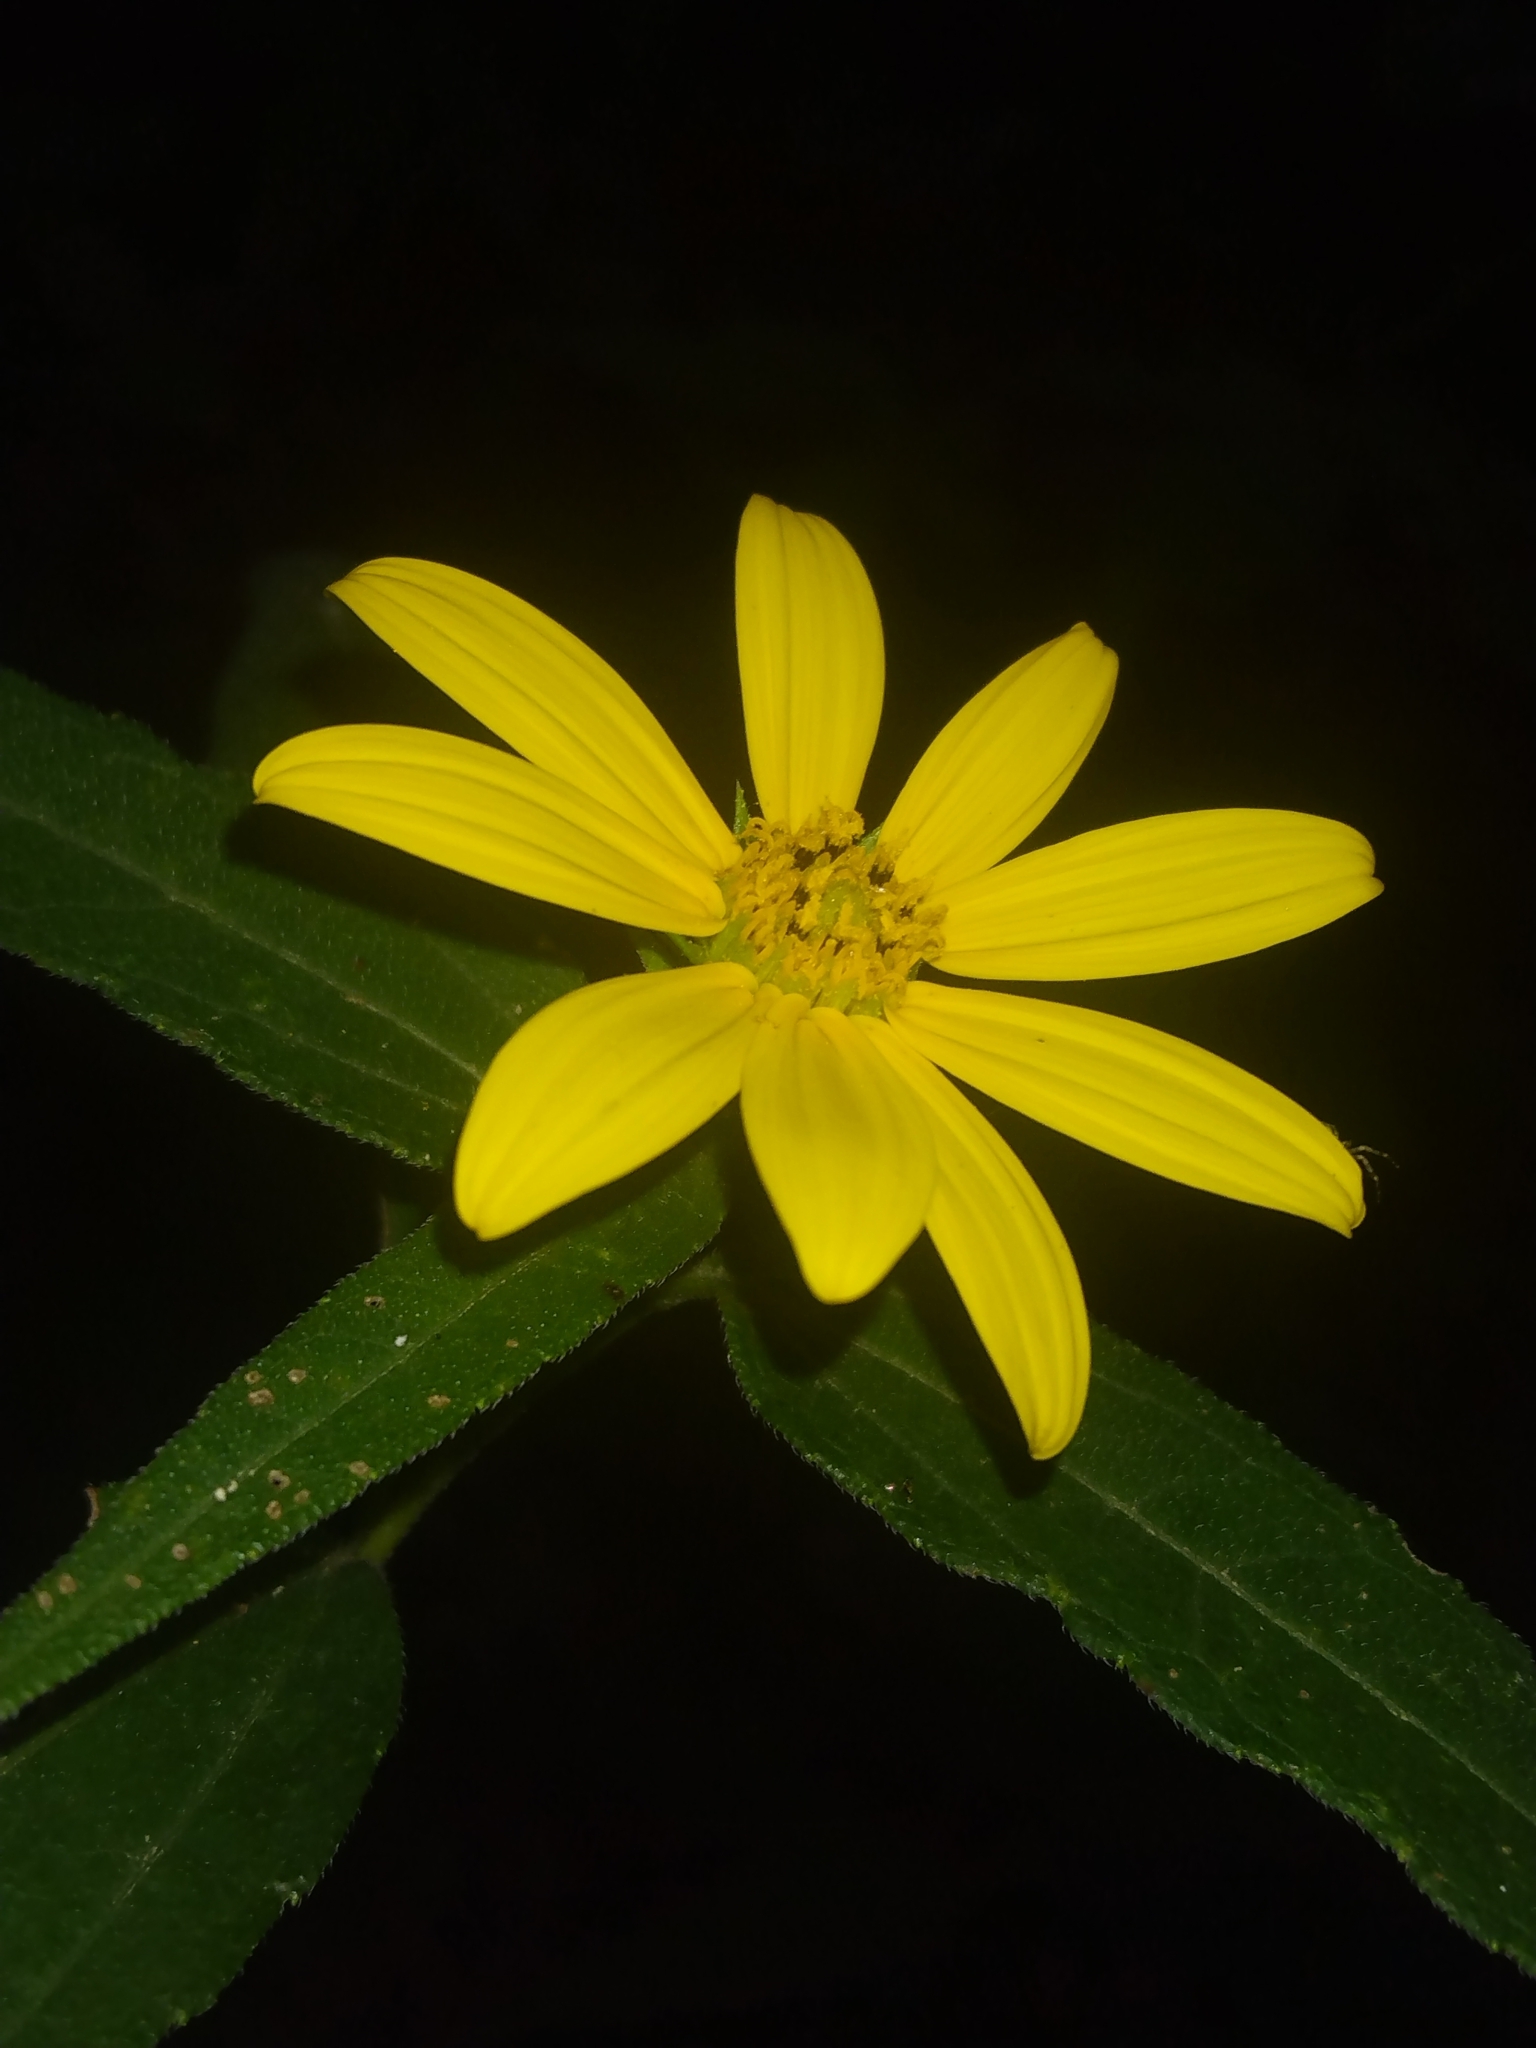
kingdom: Plantae
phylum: Tracheophyta
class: Magnoliopsida
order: Asterales
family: Asteraceae
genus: Helianthus
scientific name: Helianthus divaricatus
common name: Divergent sunflower
